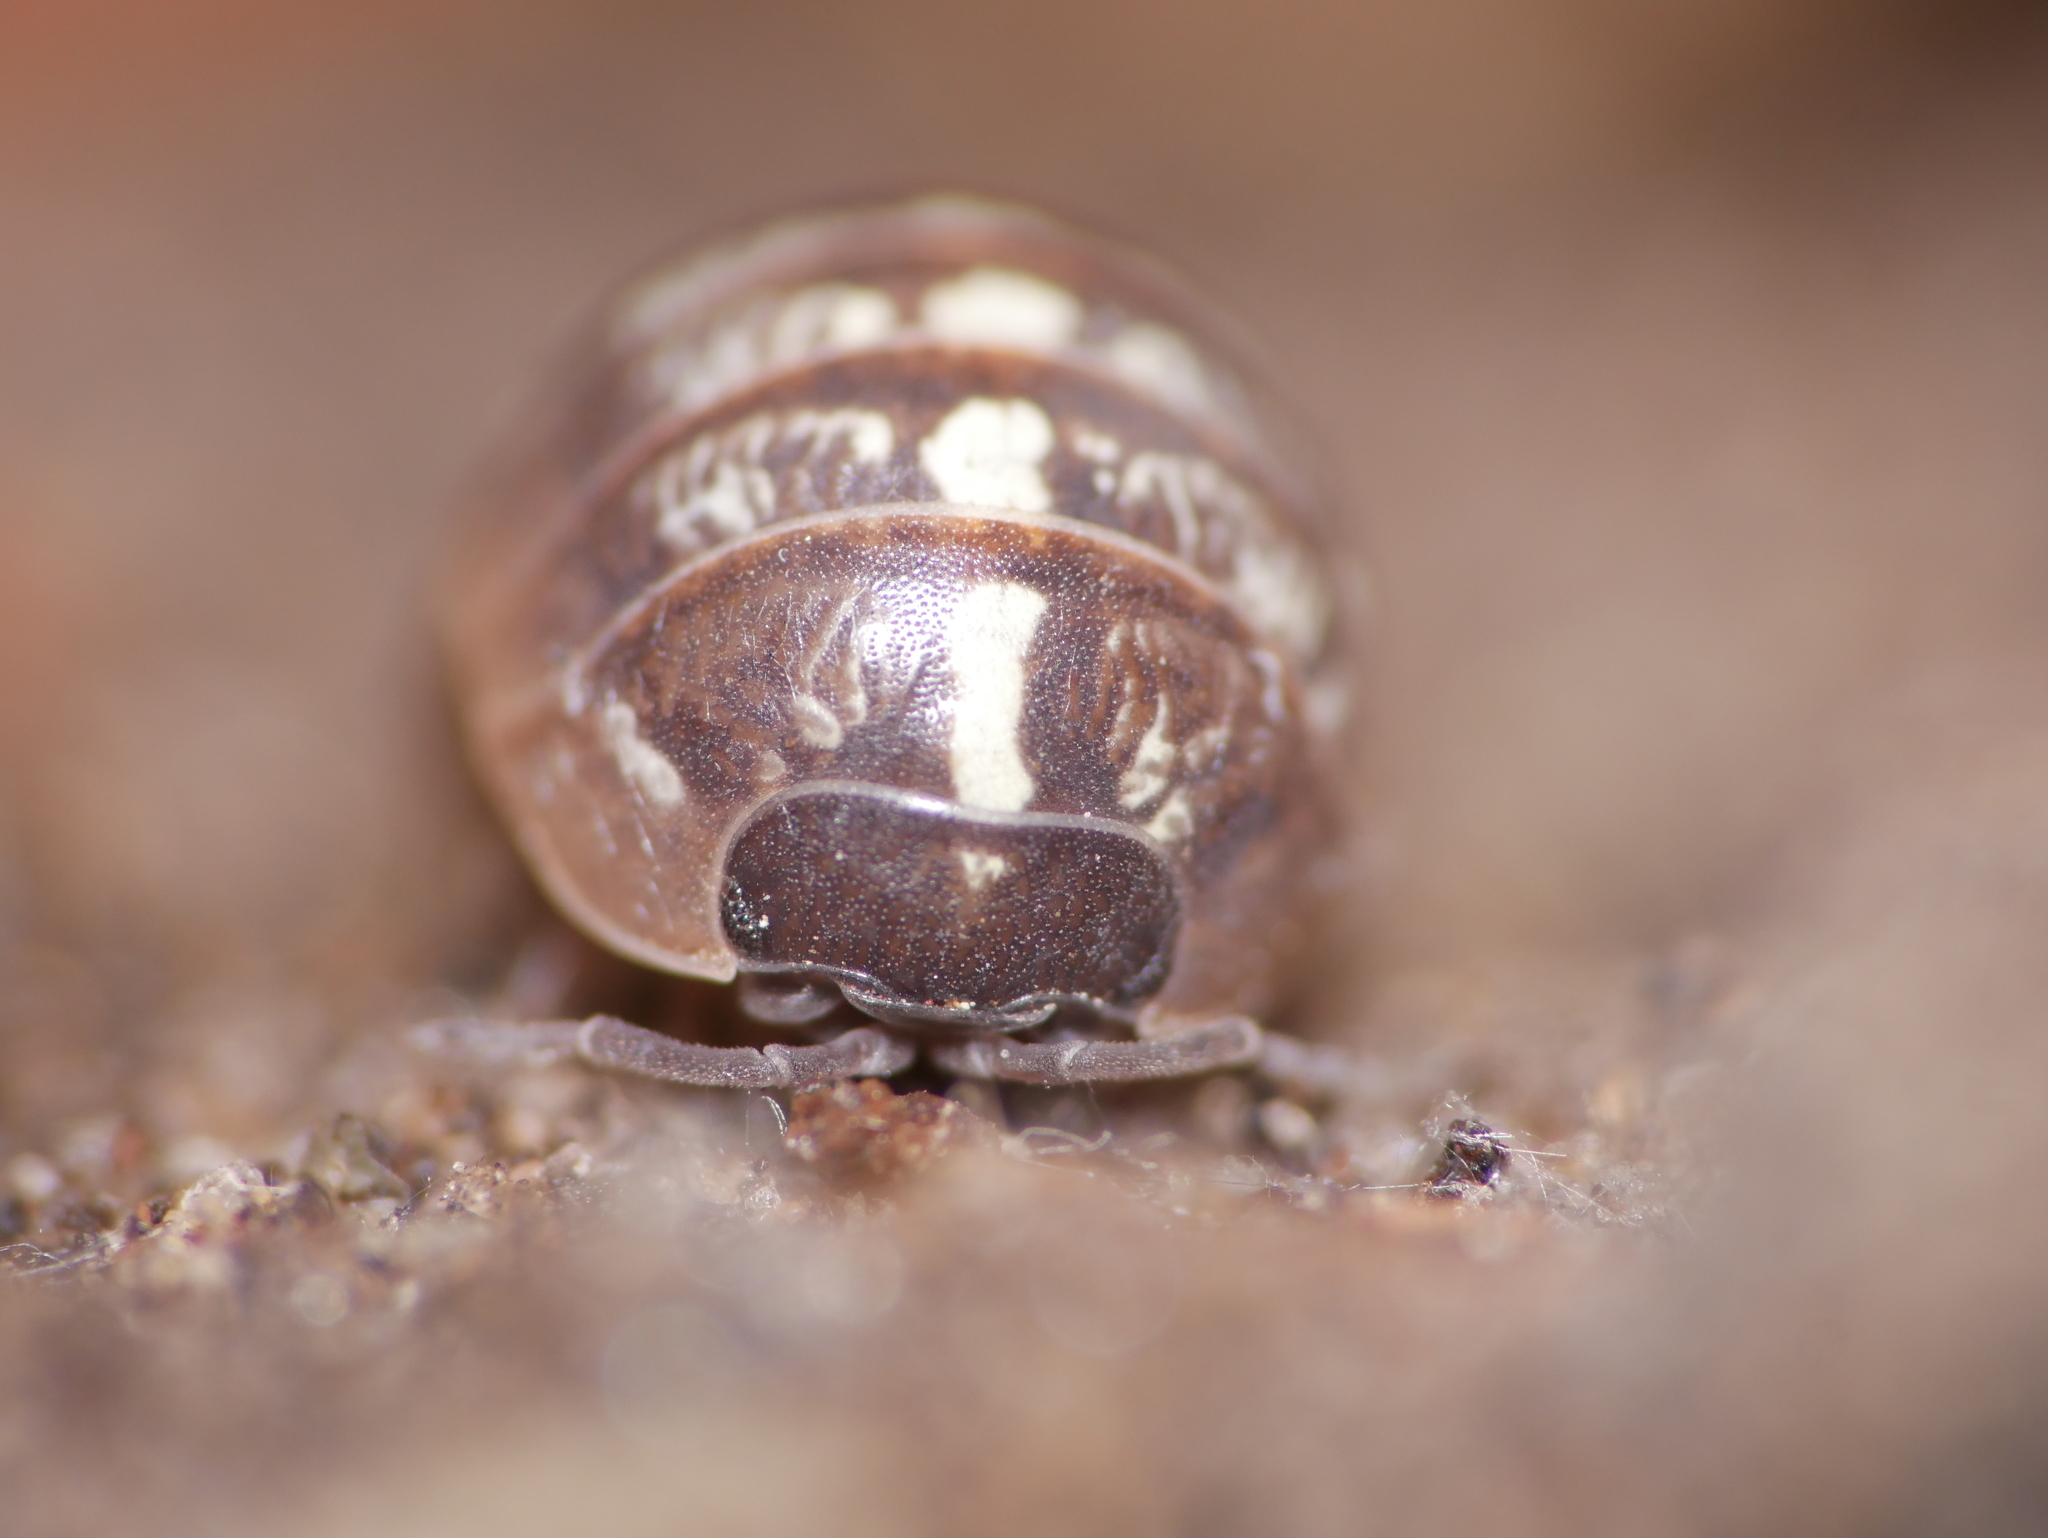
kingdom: Animalia
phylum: Arthropoda
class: Malacostraca
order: Isopoda
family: Armadillidiidae
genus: Armadillidium
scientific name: Armadillidium vulgare
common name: Common pill woodlouse
